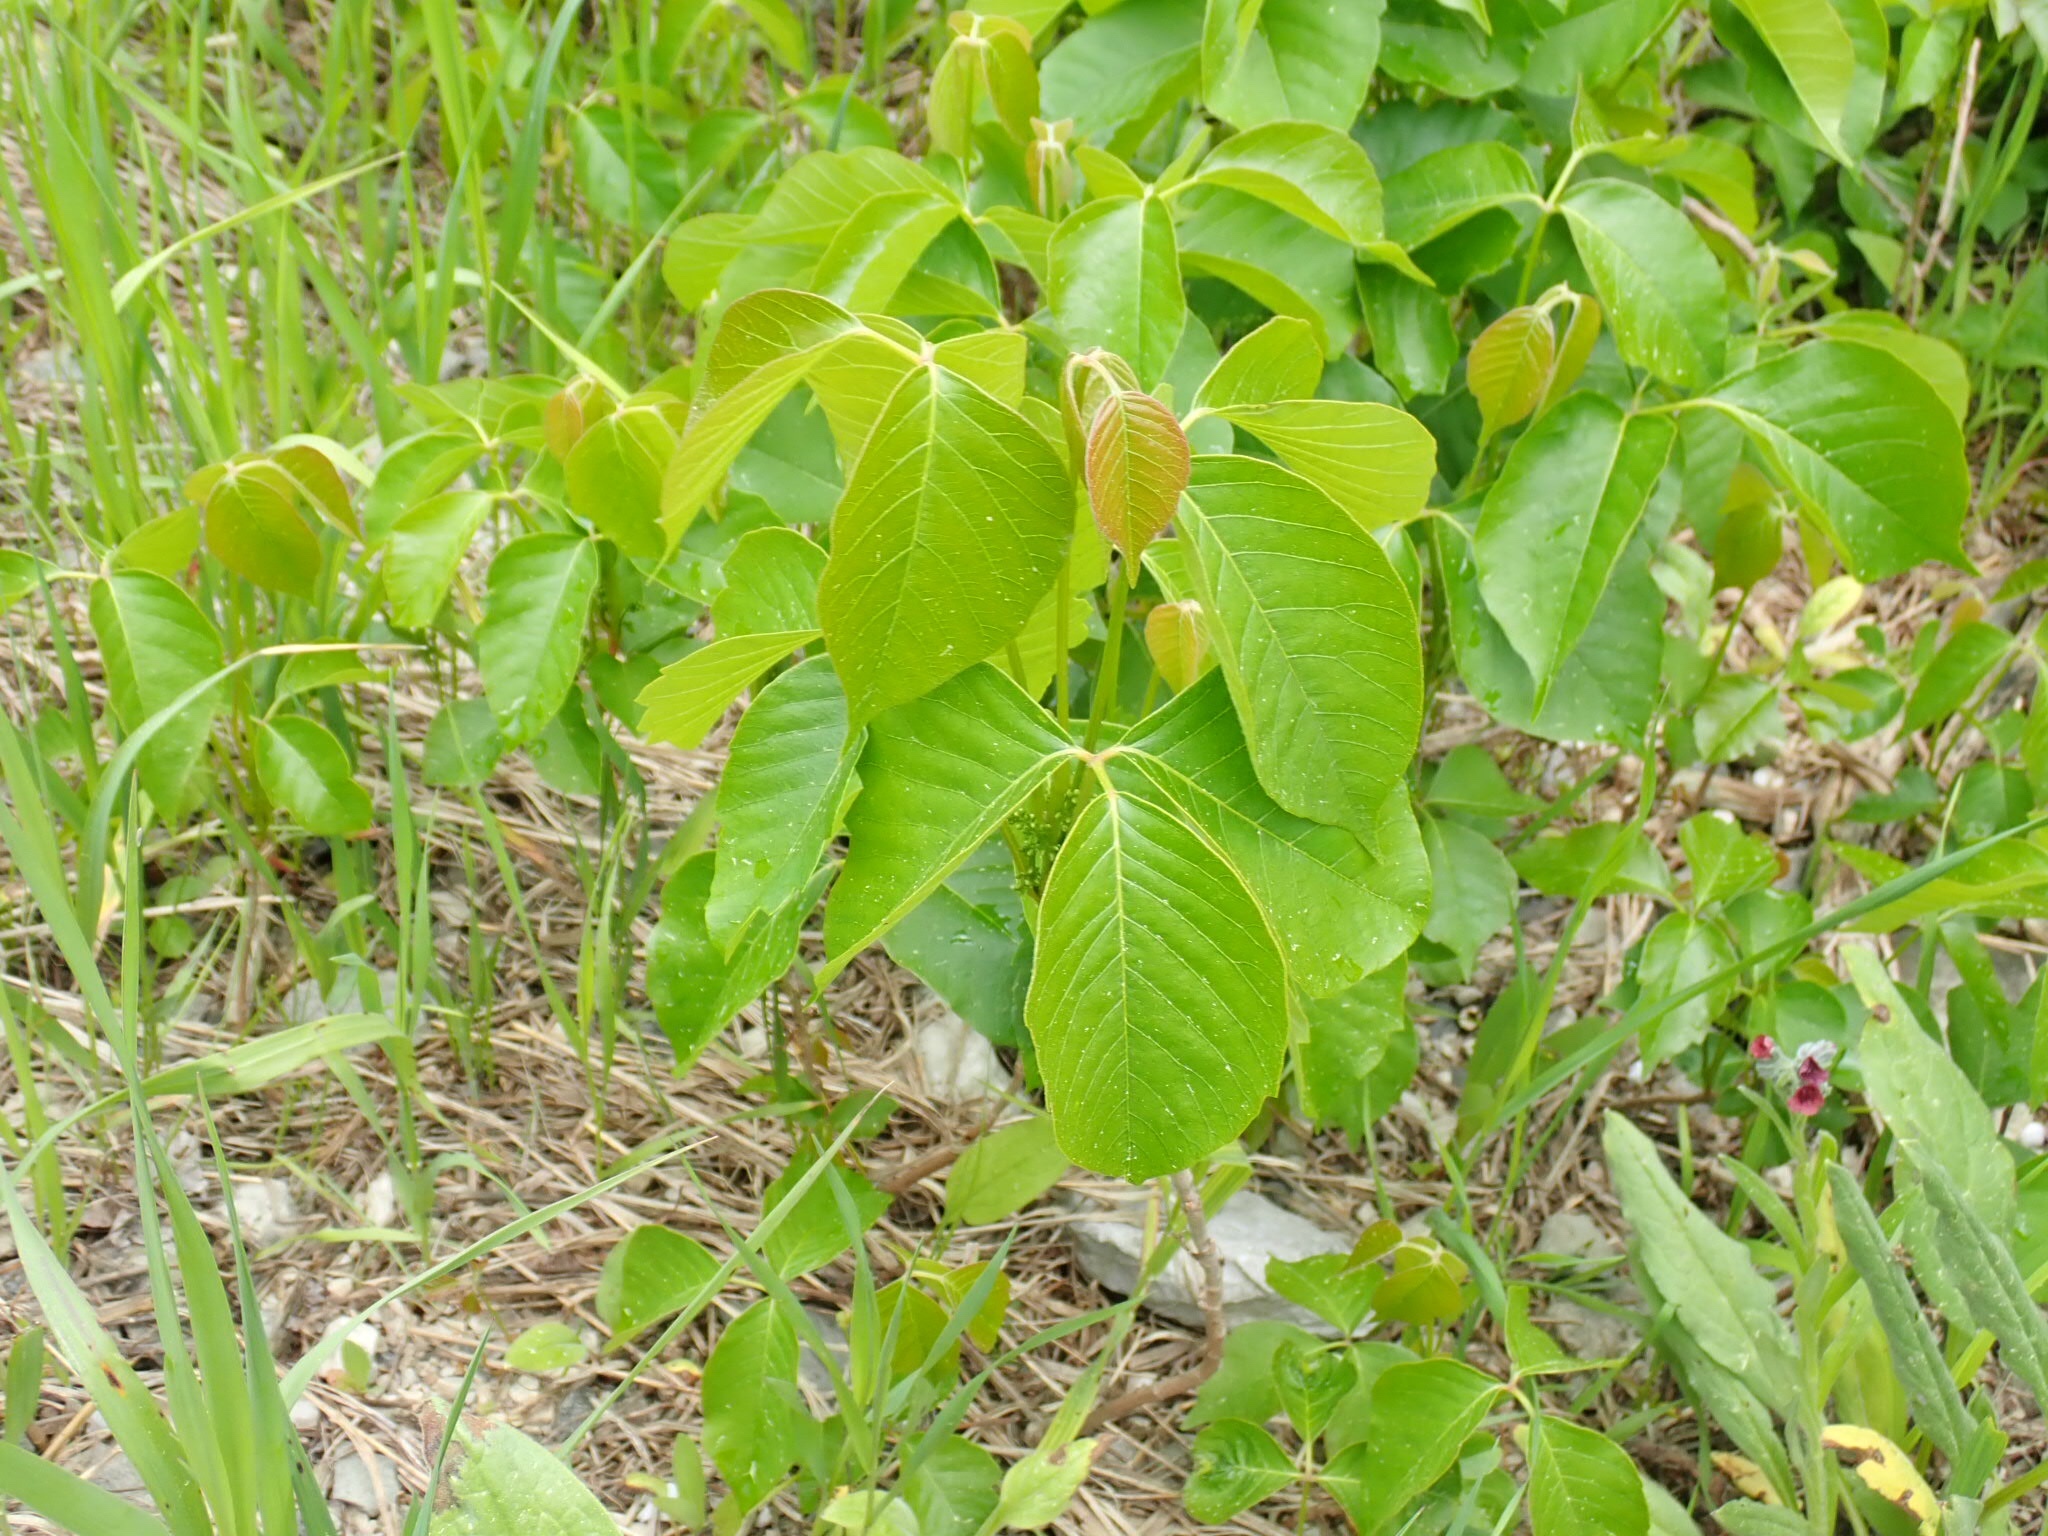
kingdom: Plantae
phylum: Tracheophyta
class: Magnoliopsida
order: Sapindales
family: Anacardiaceae
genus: Toxicodendron
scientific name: Toxicodendron rydbergii
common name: Rydberg's poison-ivy
